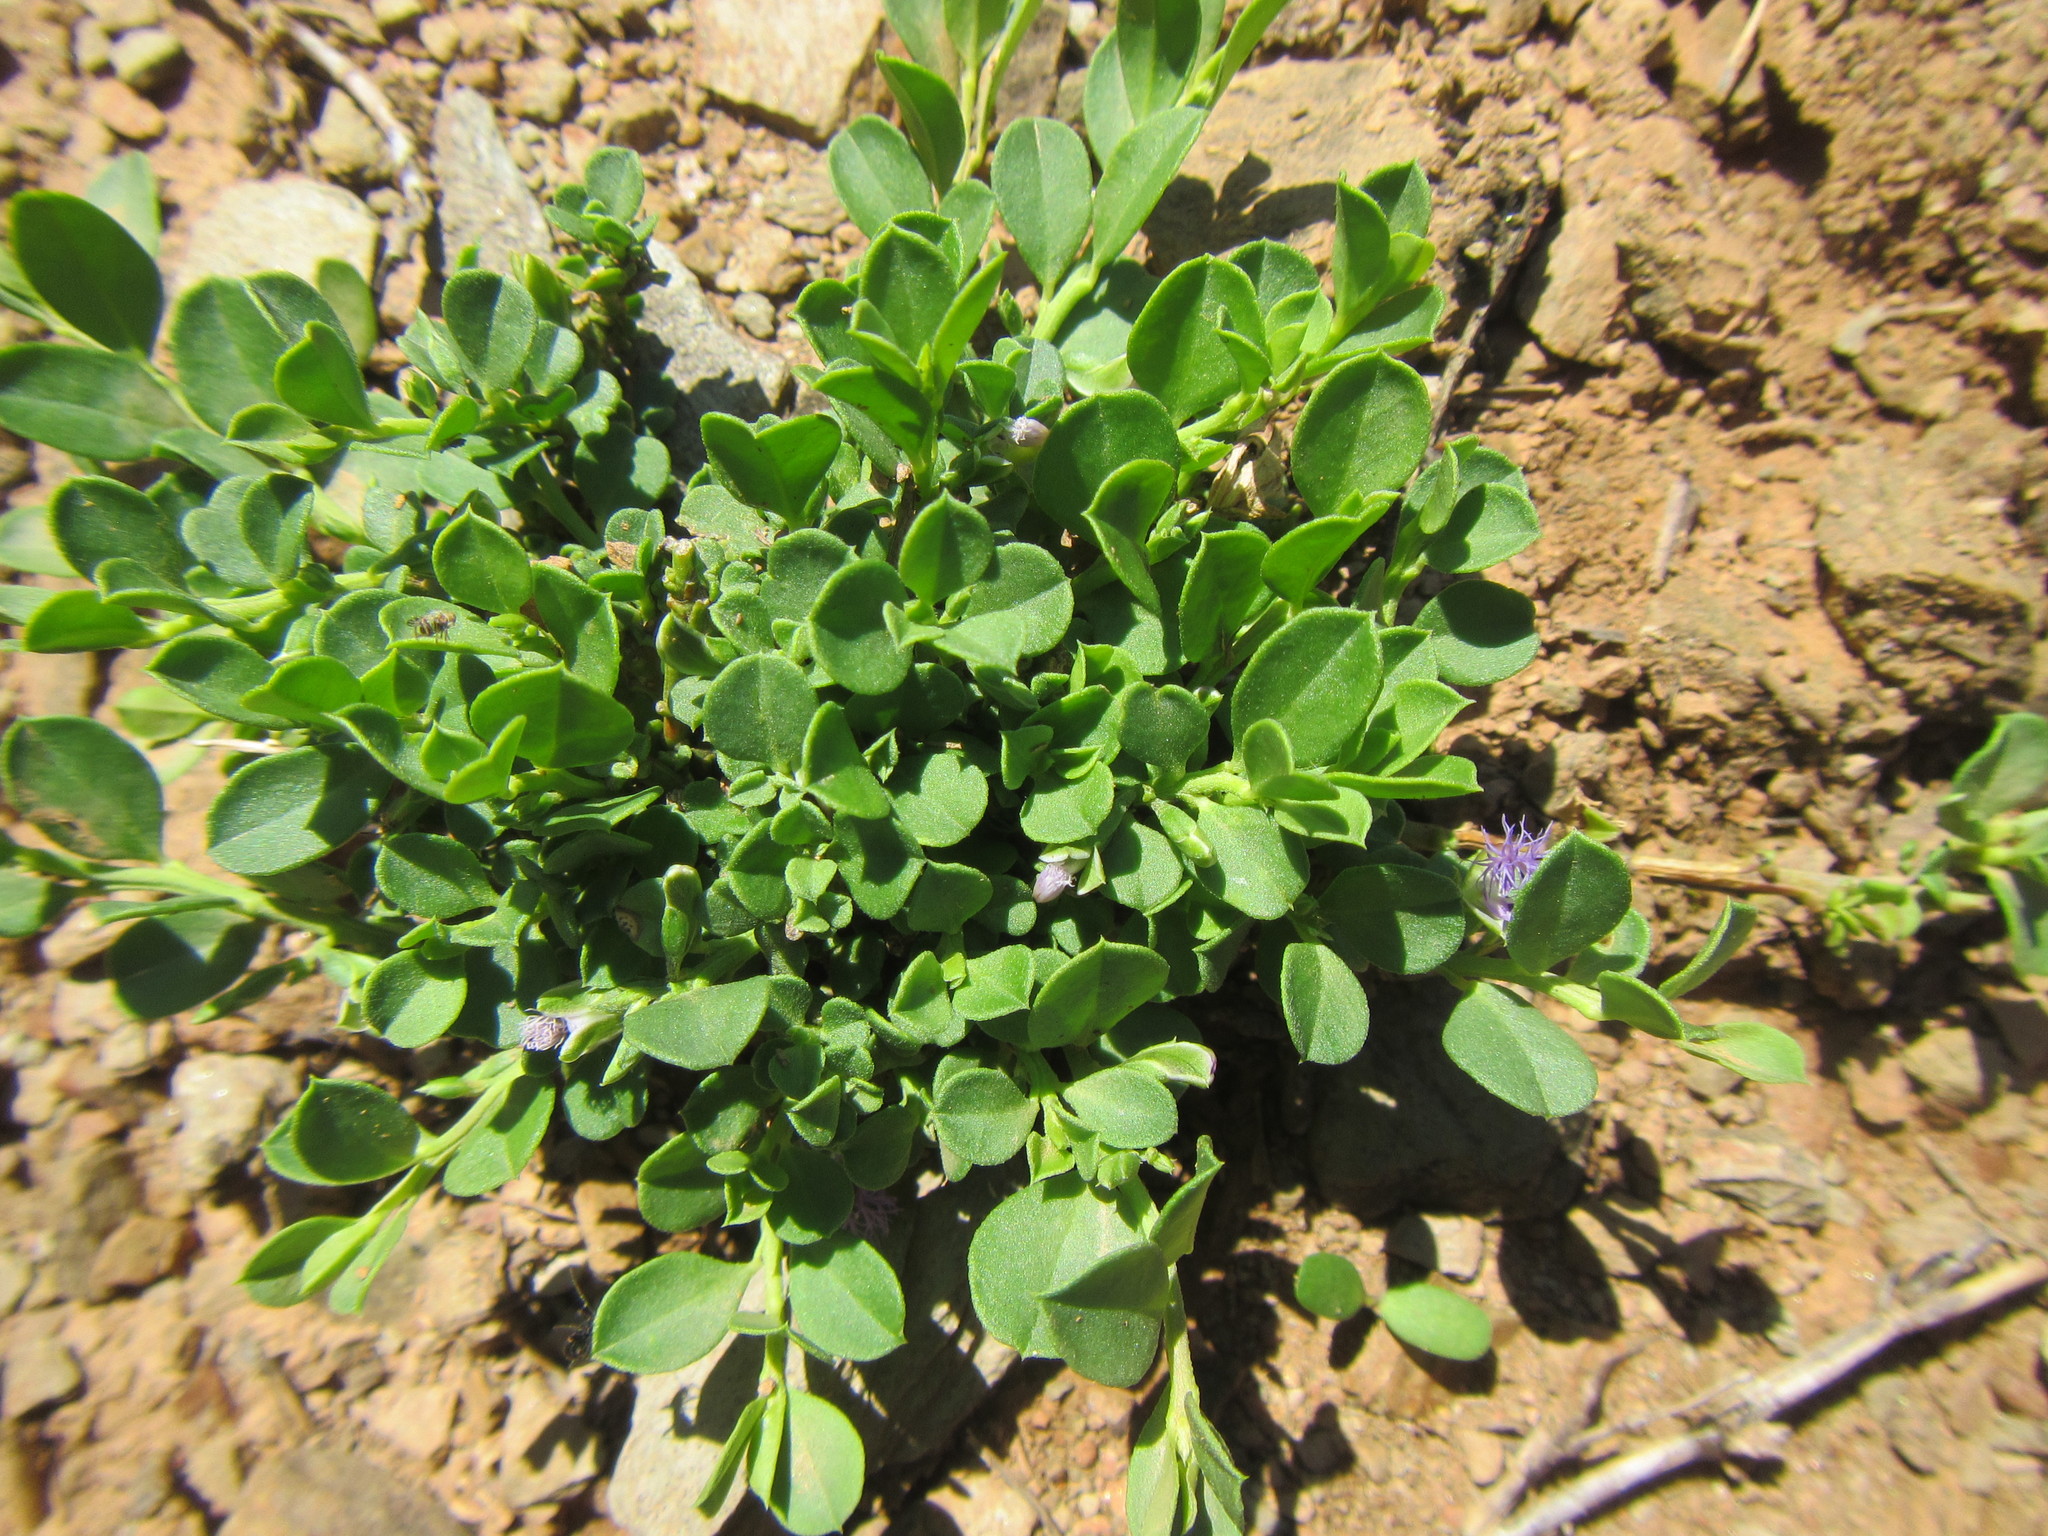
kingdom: Plantae
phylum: Tracheophyta
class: Magnoliopsida
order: Fabales
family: Polygalaceae
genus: Polygala
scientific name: Polygala asbestina
